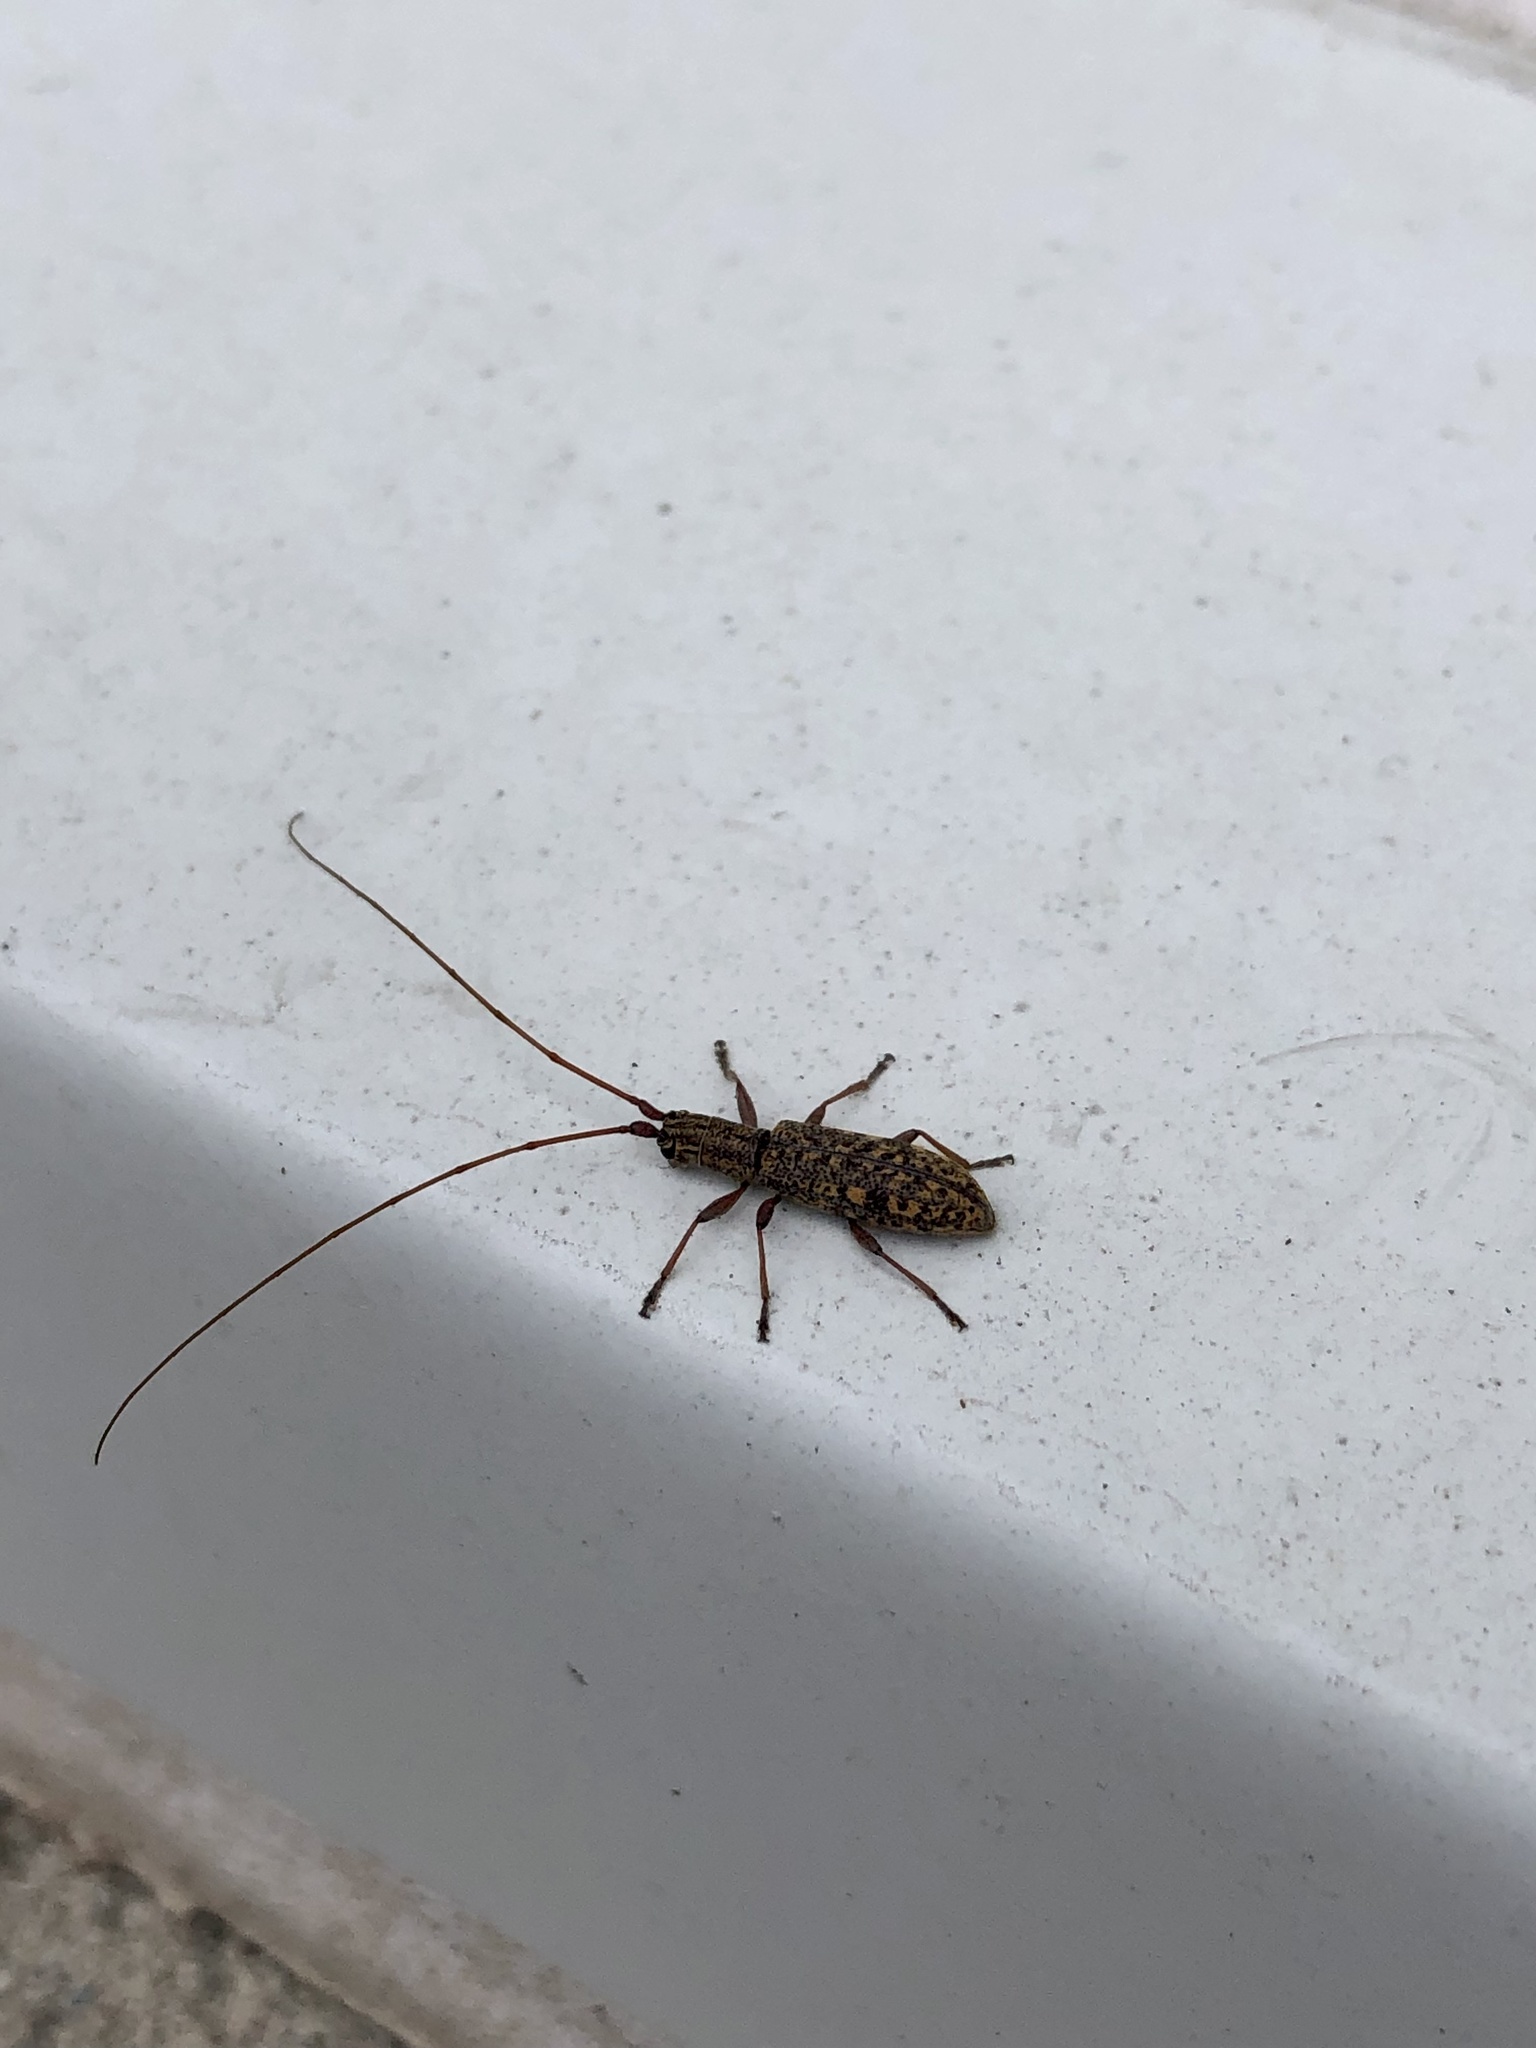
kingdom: Animalia
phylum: Arthropoda
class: Insecta
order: Coleoptera
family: Cerambycidae
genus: Dorcaschema
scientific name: Dorcaschema alternatum
